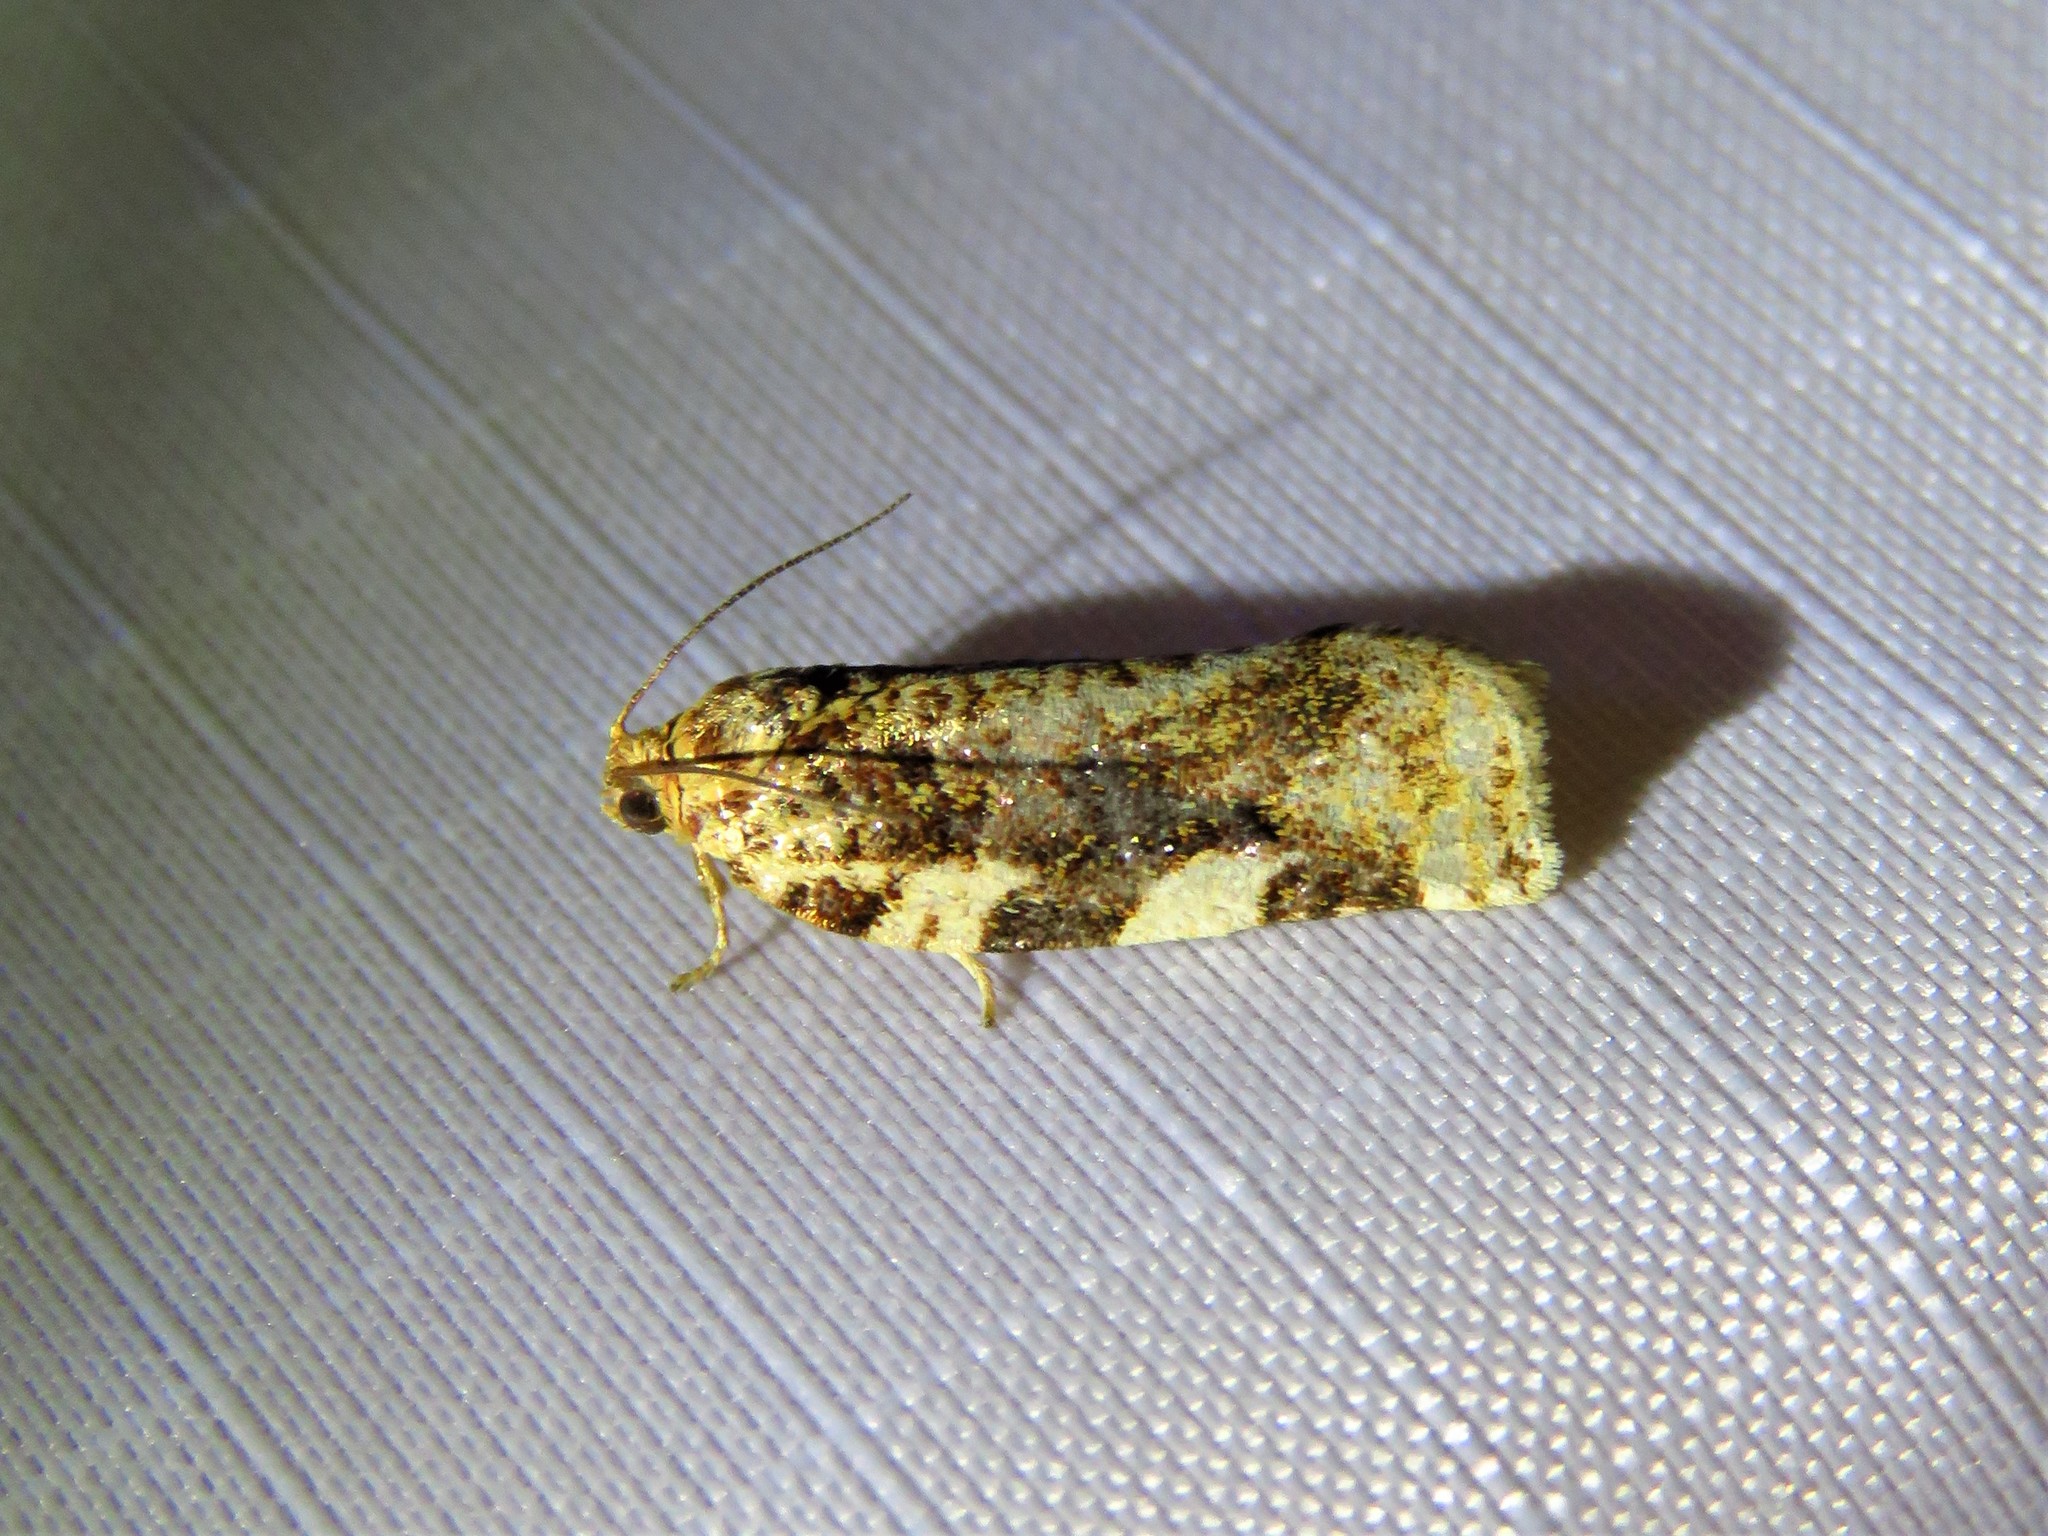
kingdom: Animalia
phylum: Arthropoda
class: Insecta
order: Lepidoptera
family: Tortricidae
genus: Archips
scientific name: Archips argyrospila
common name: Fruit-tree leafroller moth
